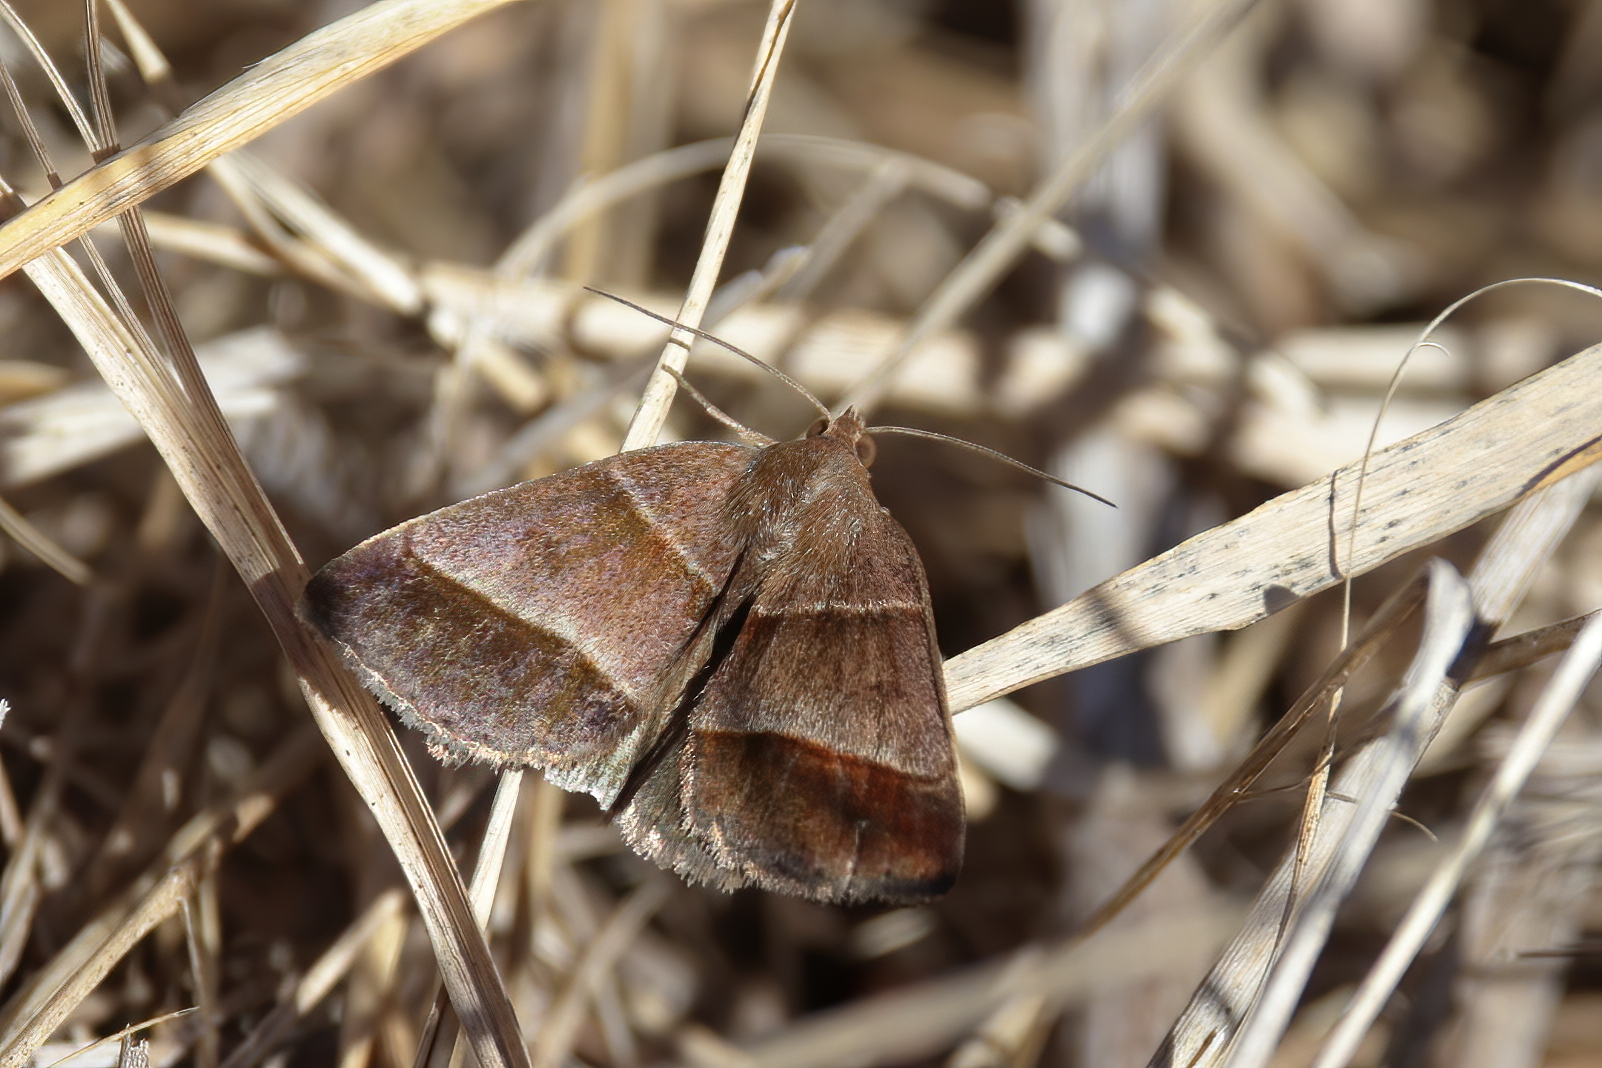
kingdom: Animalia
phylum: Arthropoda
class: Insecta
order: Lepidoptera
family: Erebidae
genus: Argyrostrotis
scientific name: Argyrostrotis sylvarum
